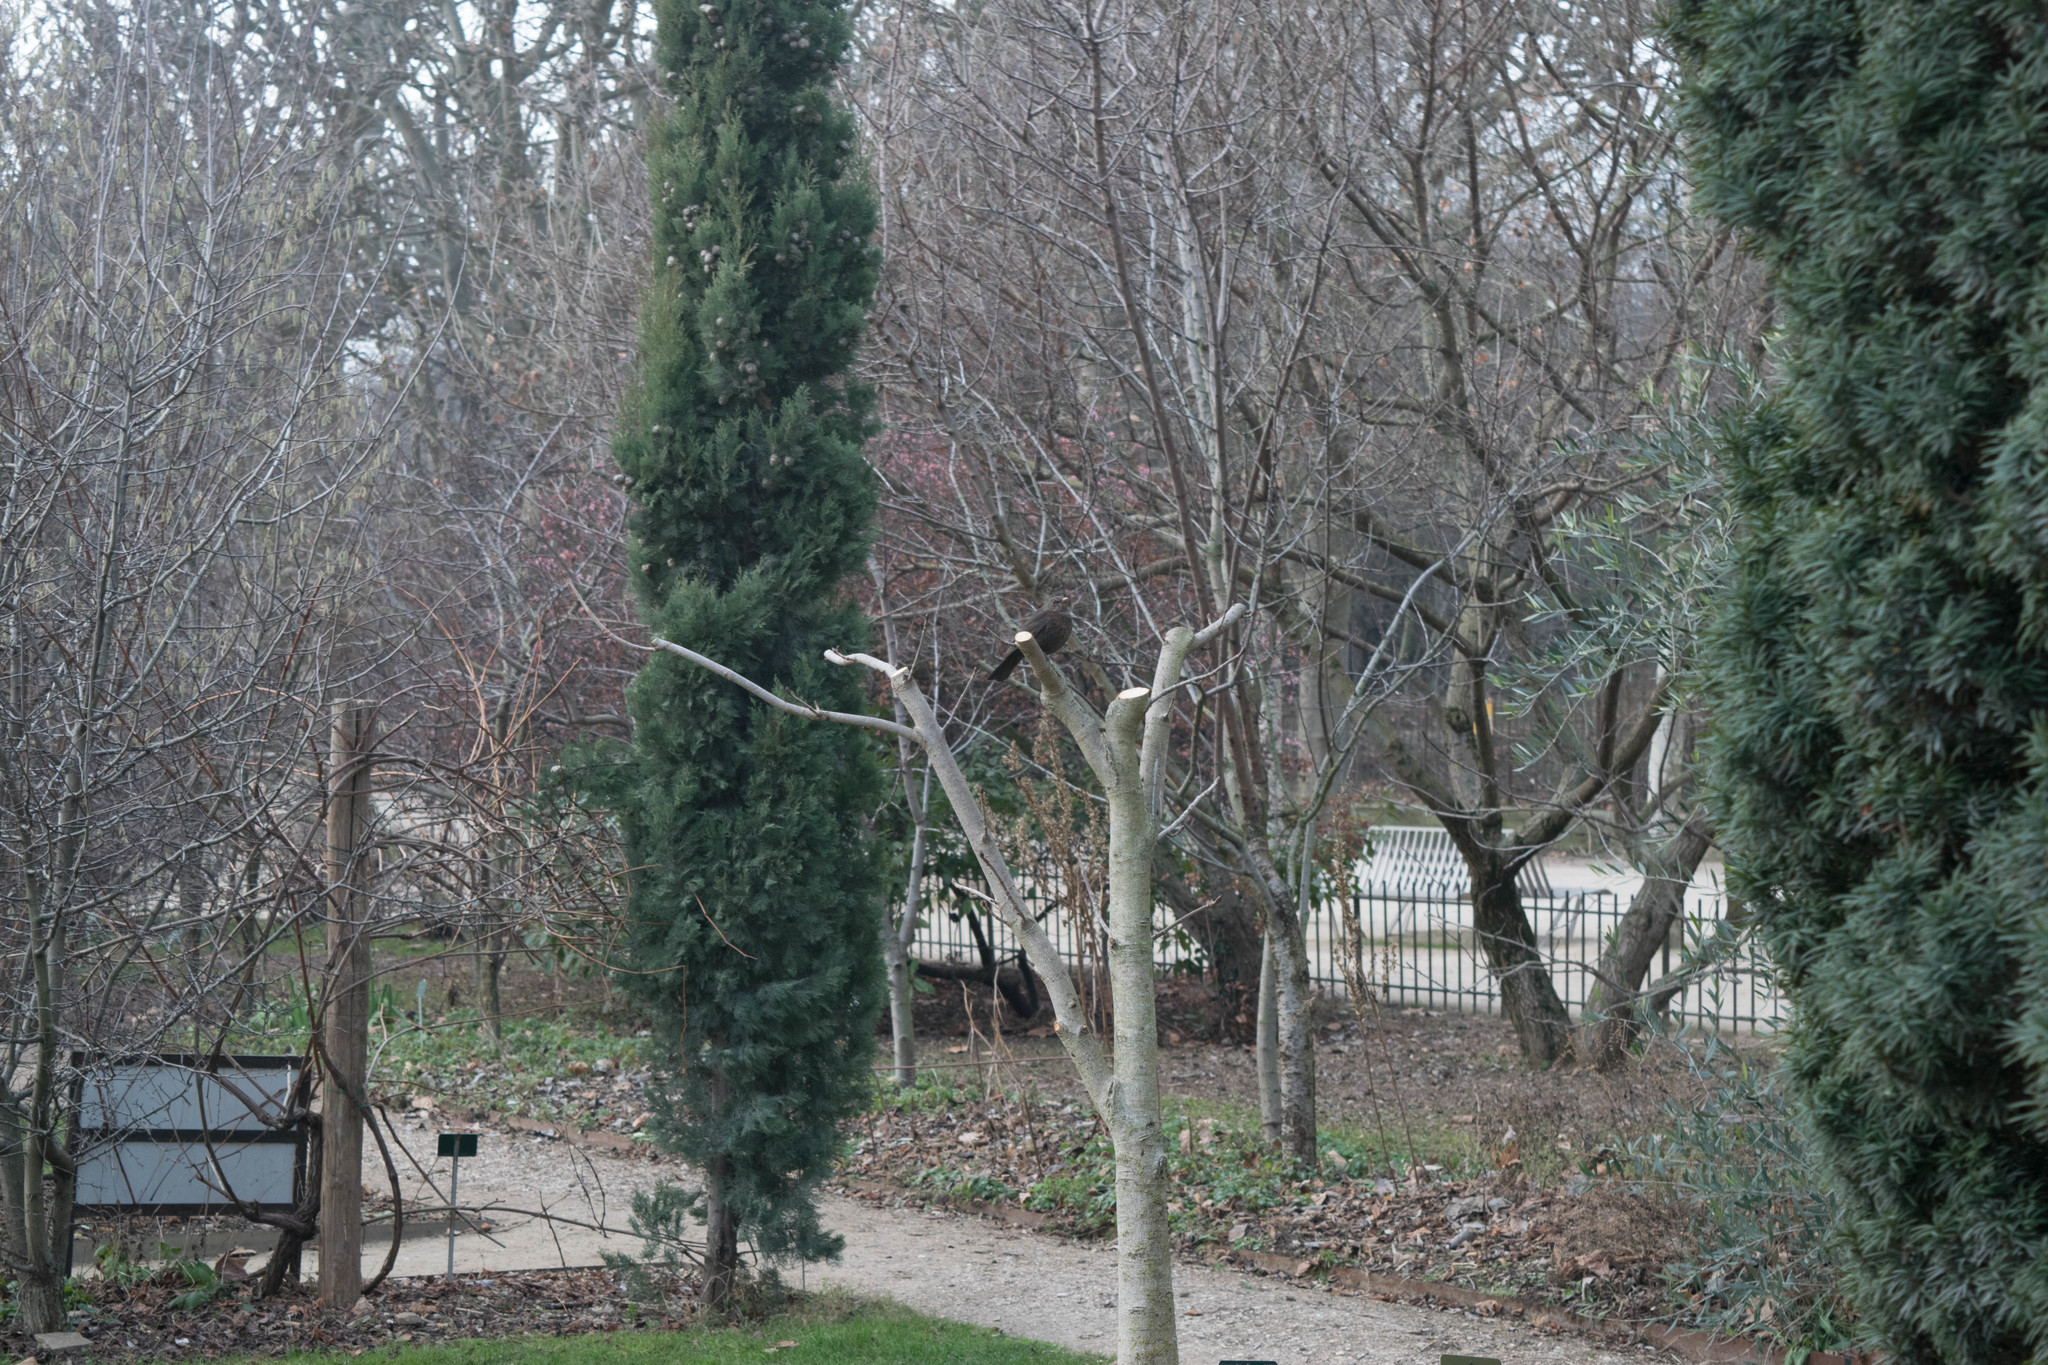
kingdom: Animalia
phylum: Chordata
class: Aves
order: Passeriformes
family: Turdidae
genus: Turdus
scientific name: Turdus merula
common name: Common blackbird
